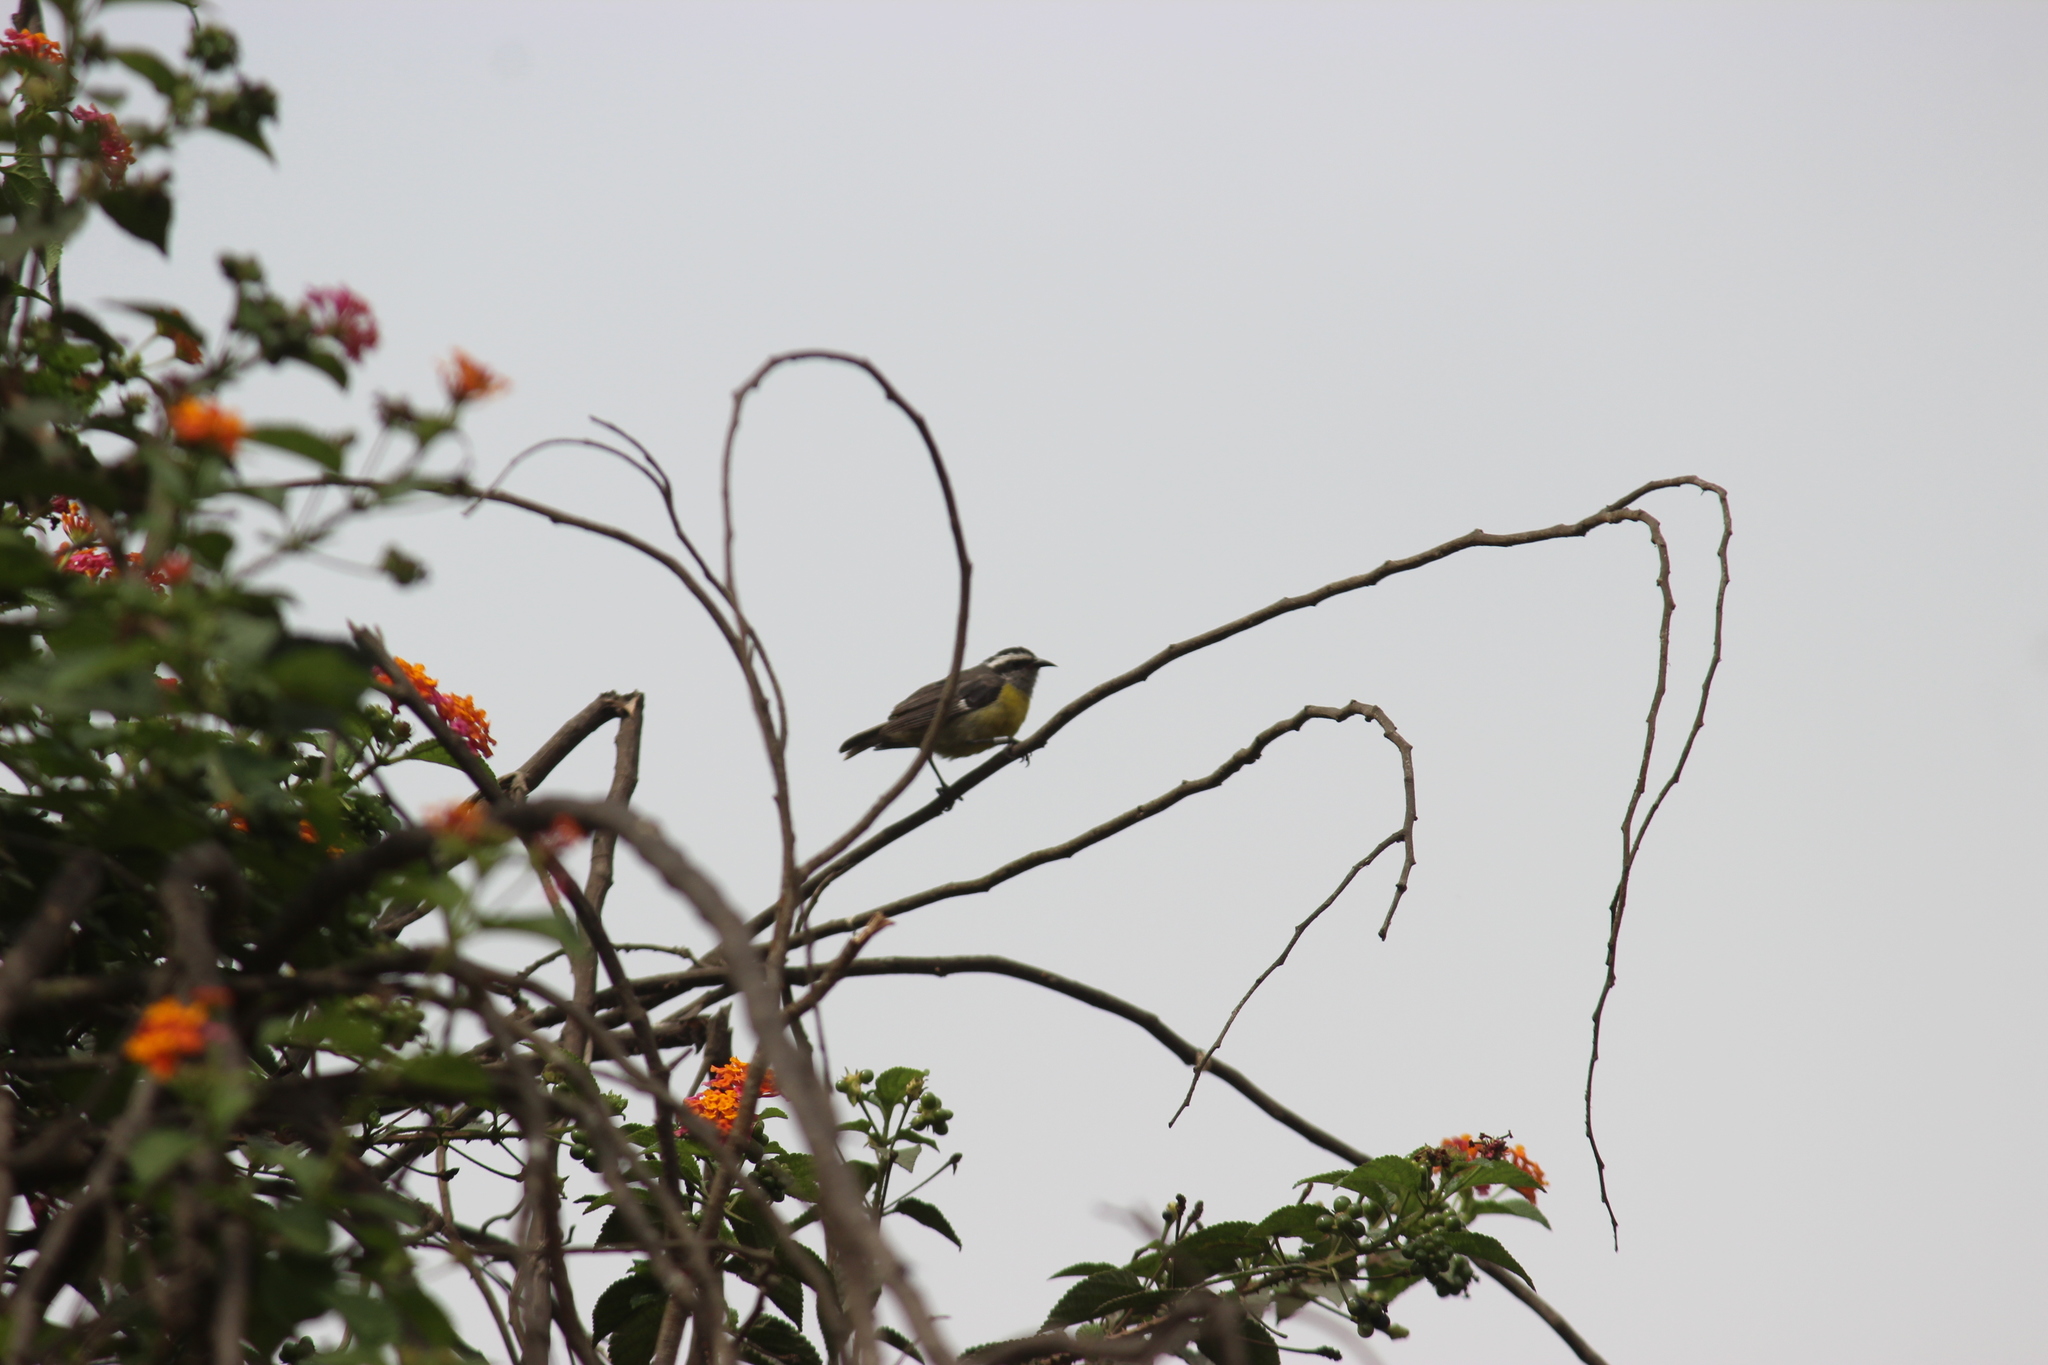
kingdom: Animalia
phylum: Chordata
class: Aves
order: Passeriformes
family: Thraupidae
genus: Coereba
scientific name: Coereba flaveola
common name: Bananaquit
